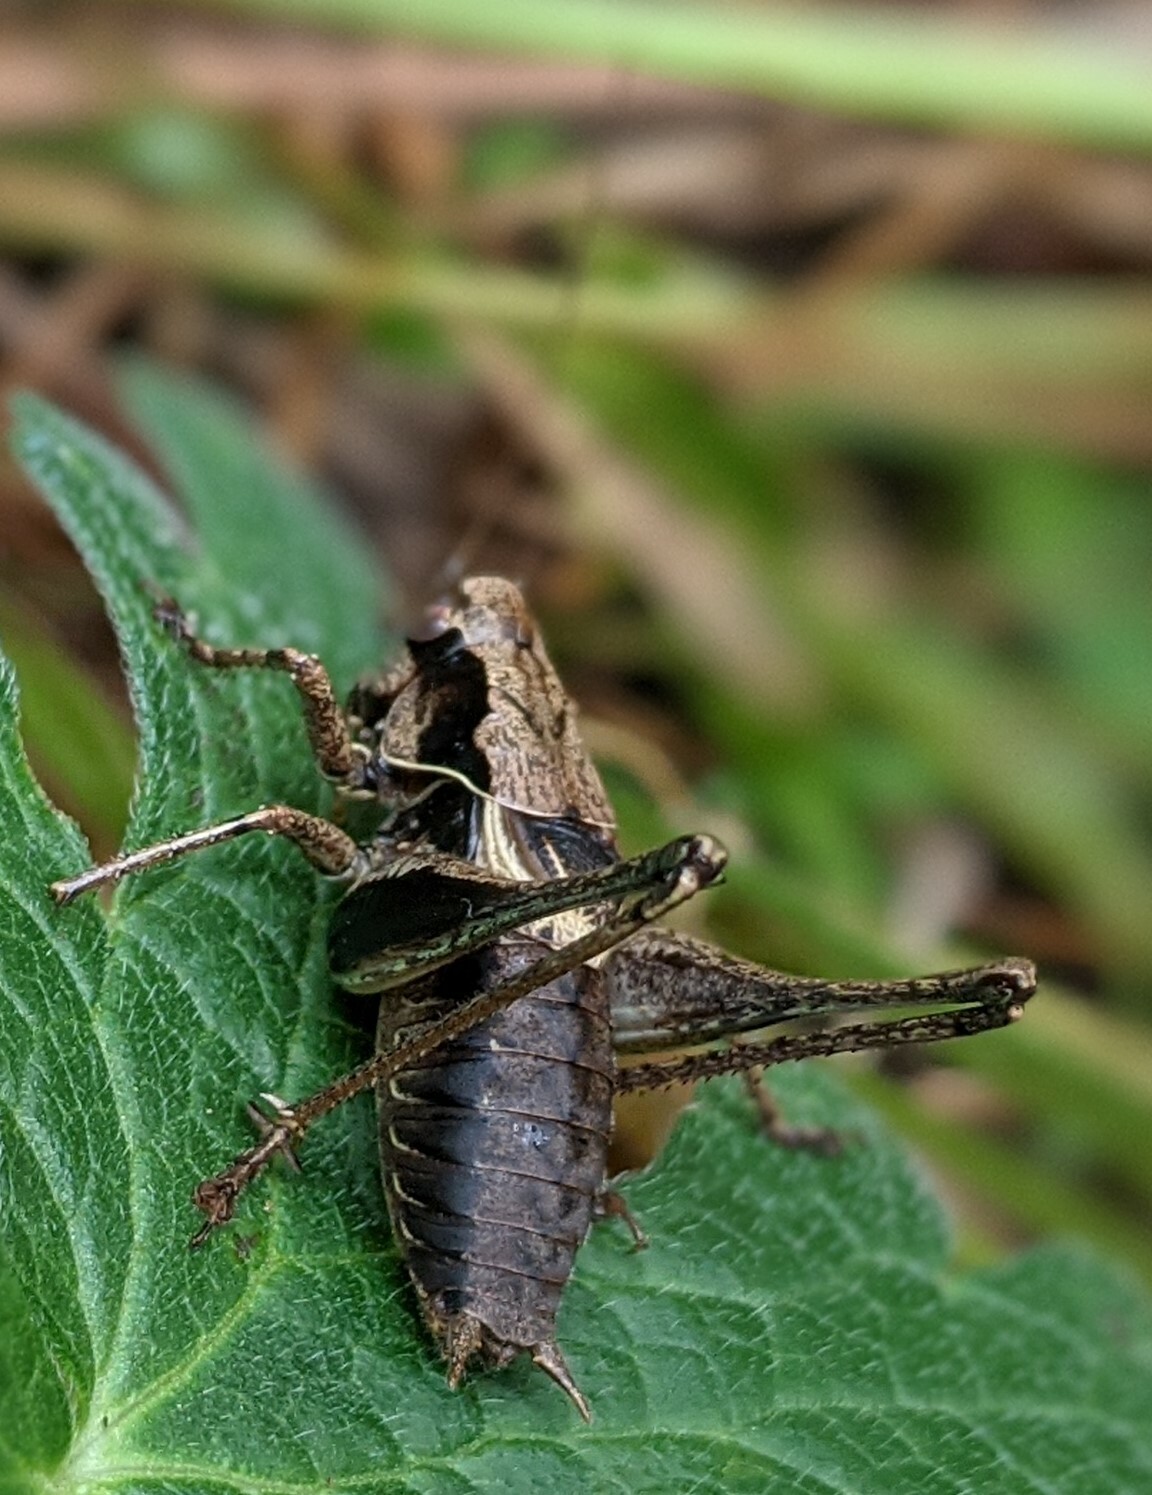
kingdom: Animalia
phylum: Arthropoda
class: Insecta
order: Orthoptera
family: Tettigoniidae
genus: Pholidoptera
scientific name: Pholidoptera griseoaptera
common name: Dark bush-cricket
